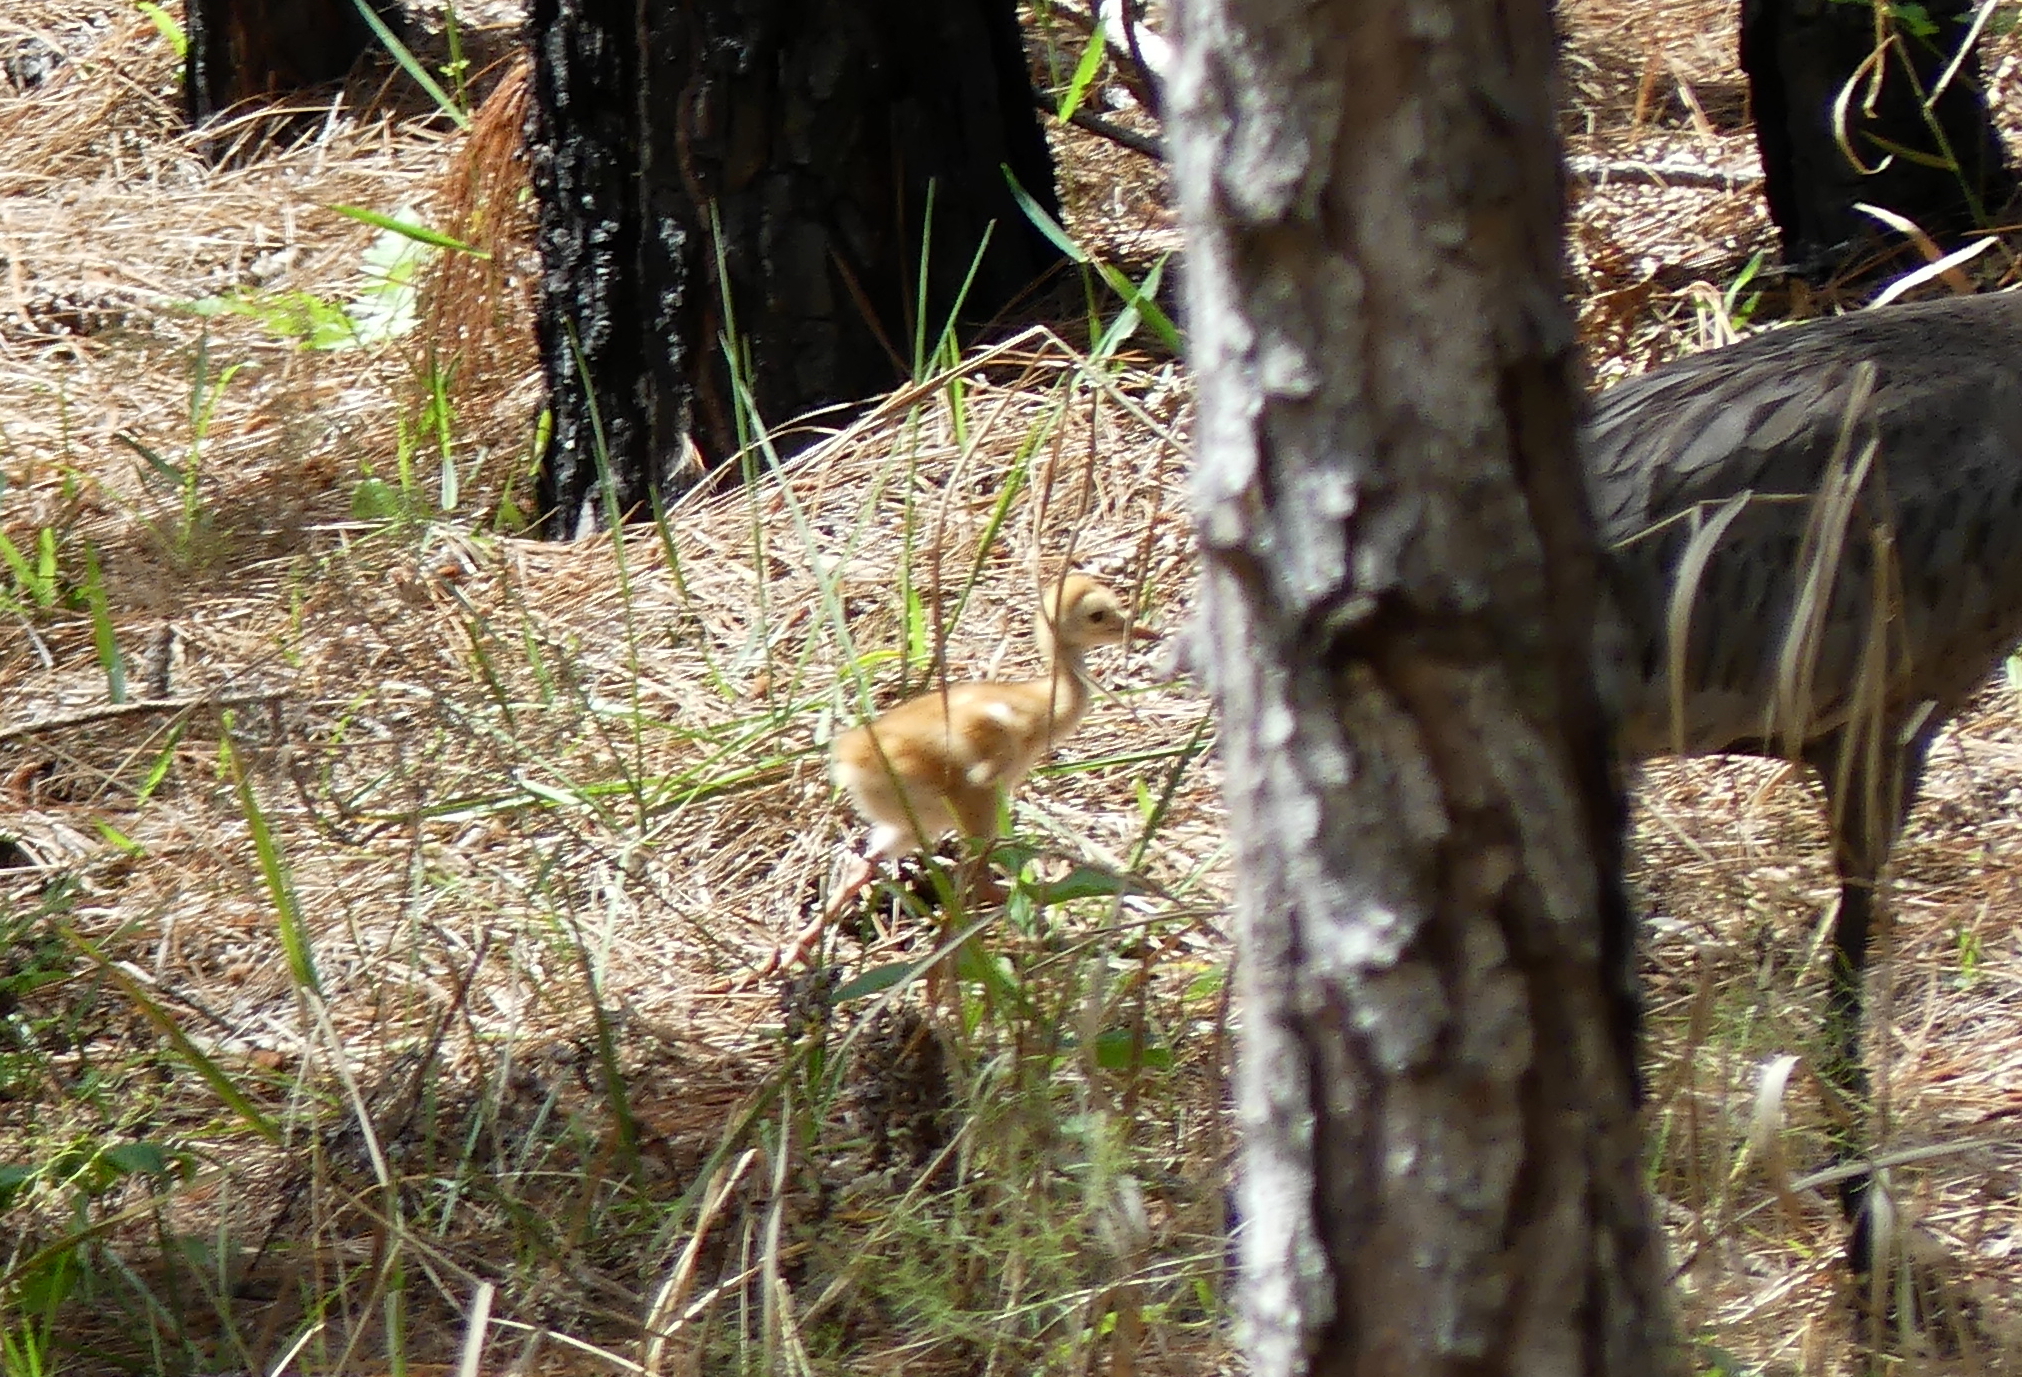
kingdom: Animalia
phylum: Chordata
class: Aves
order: Gruiformes
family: Gruidae
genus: Grus
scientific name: Grus canadensis
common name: Sandhill crane
